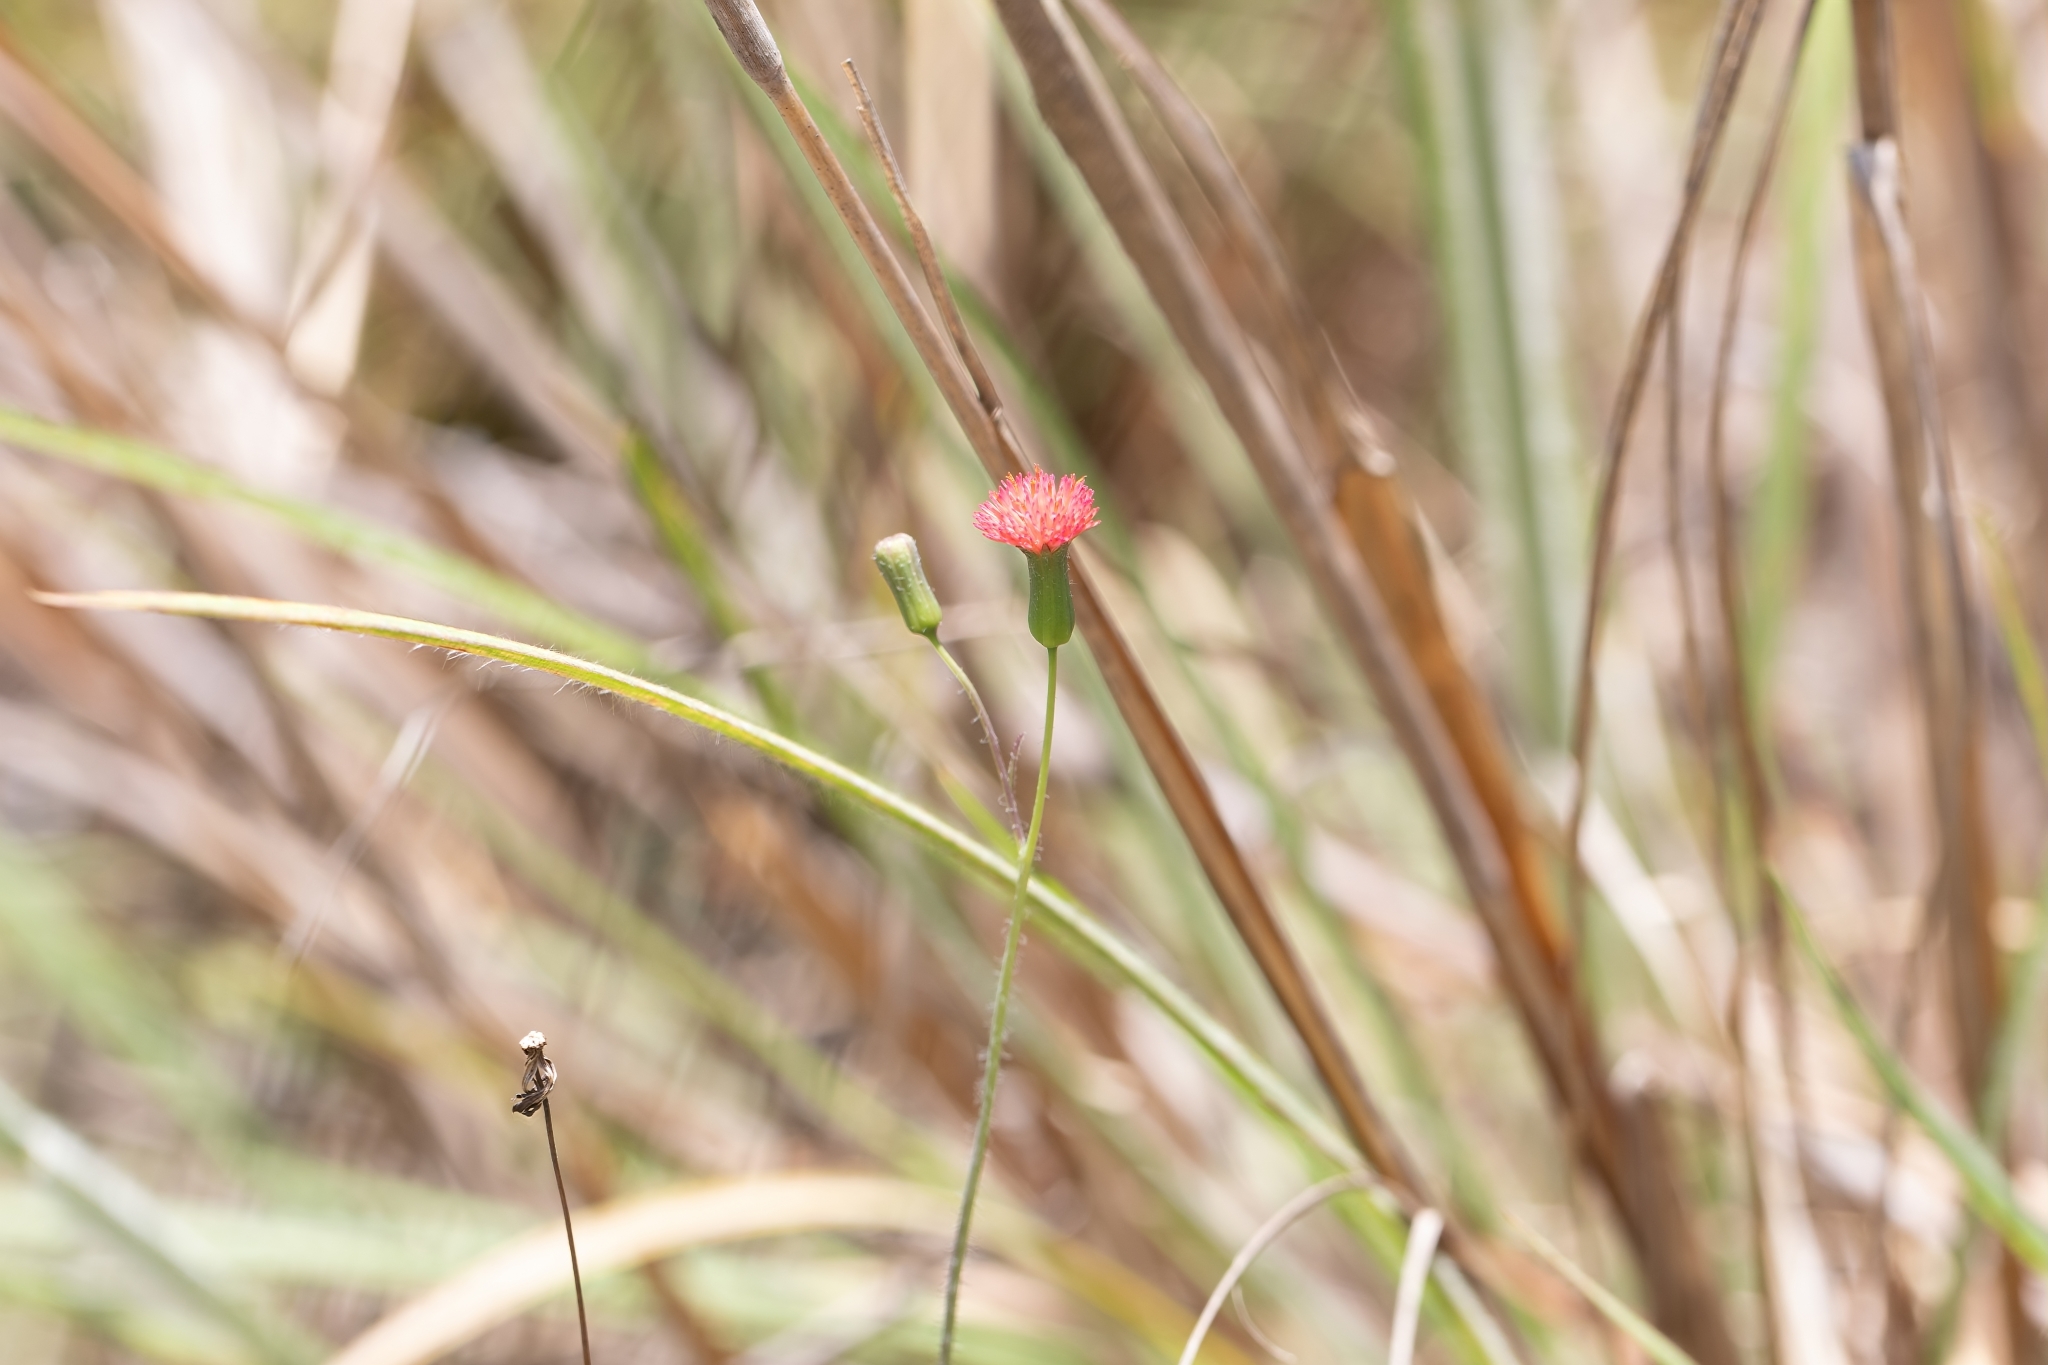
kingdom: Plantae
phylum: Tracheophyta
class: Magnoliopsida
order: Asterales
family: Asteraceae
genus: Emilia
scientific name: Emilia fosbergii
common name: Florida tasselflower
